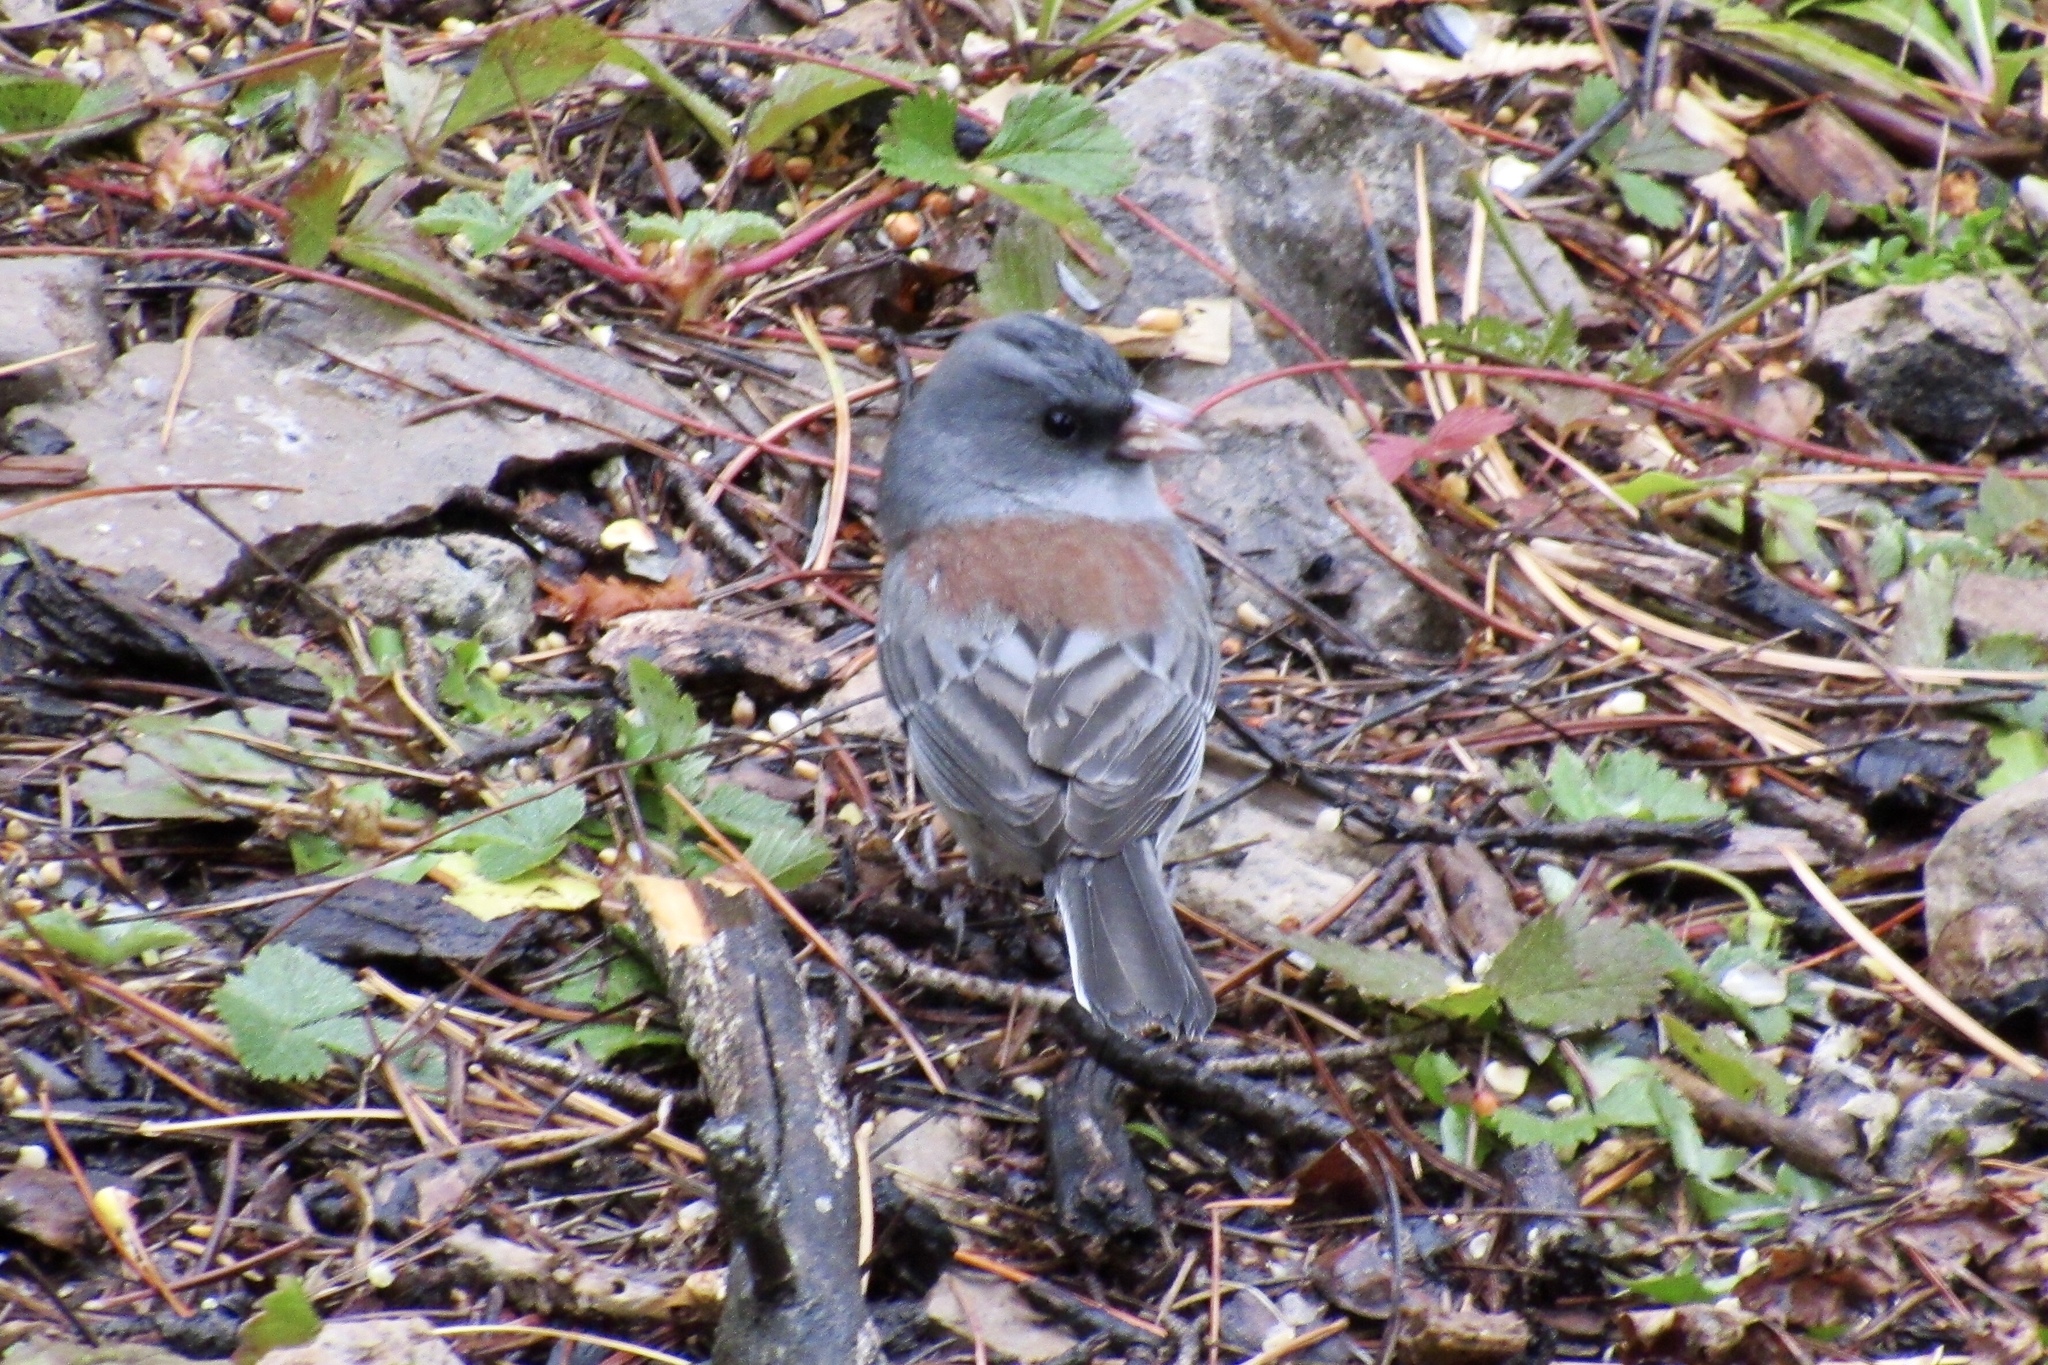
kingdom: Animalia
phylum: Chordata
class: Aves
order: Passeriformes
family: Passerellidae
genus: Junco
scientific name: Junco hyemalis
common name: Dark-eyed junco
